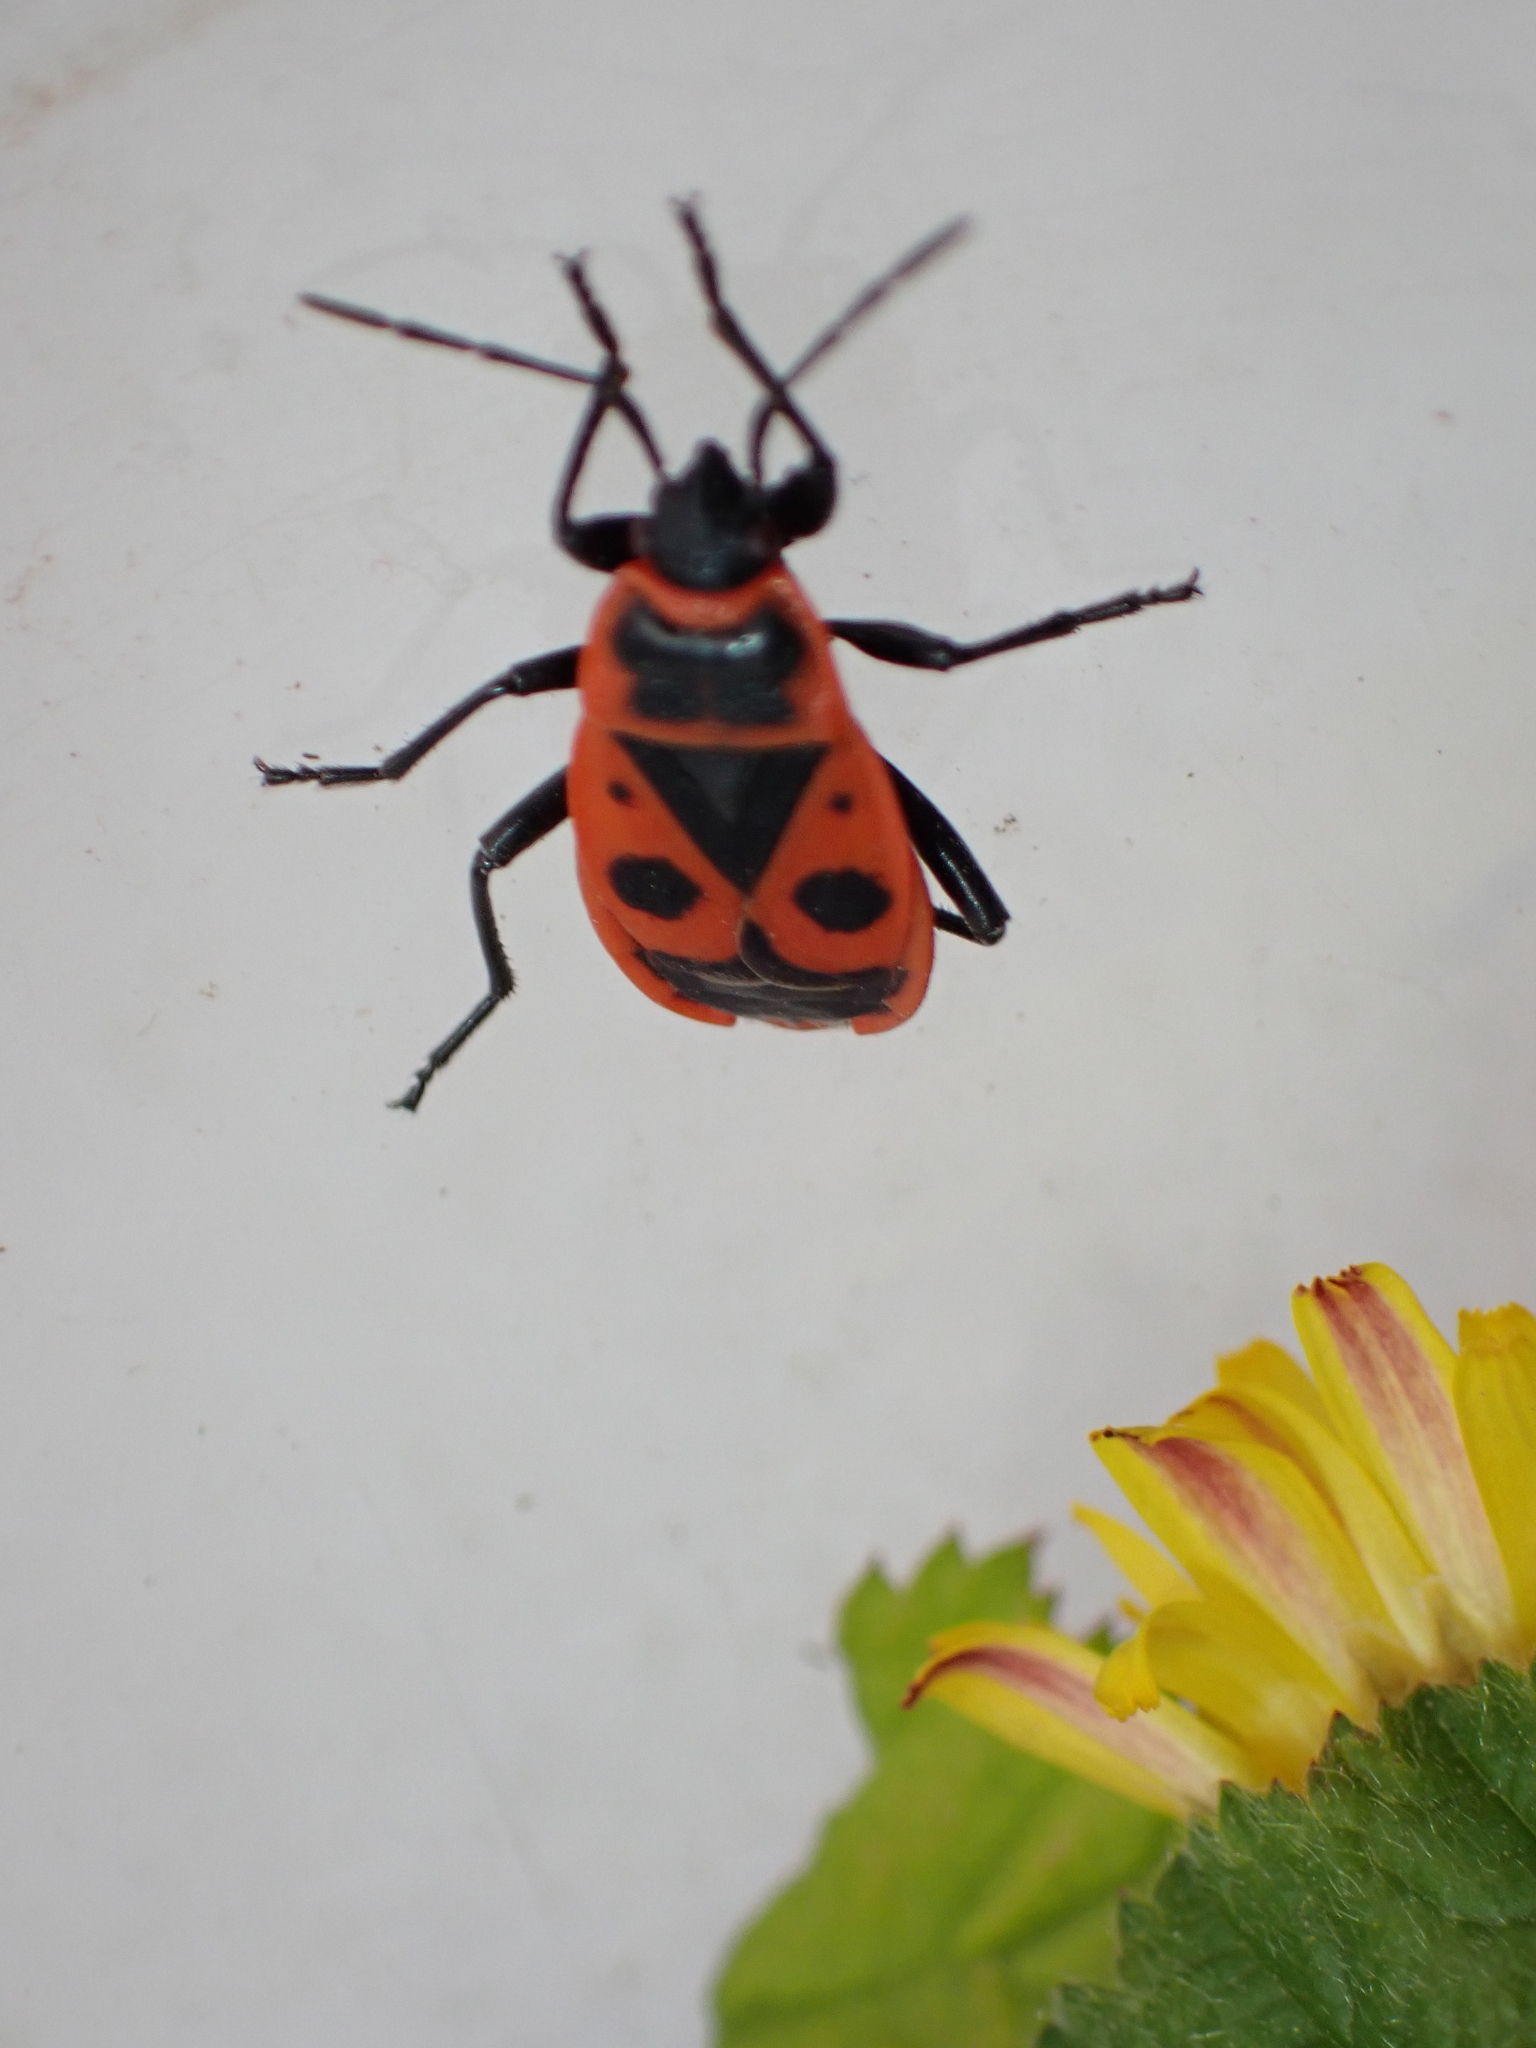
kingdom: Animalia
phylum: Arthropoda
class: Insecta
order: Hemiptera
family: Pyrrhocoridae
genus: Pyrrhocoris
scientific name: Pyrrhocoris apterus
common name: Firebug
